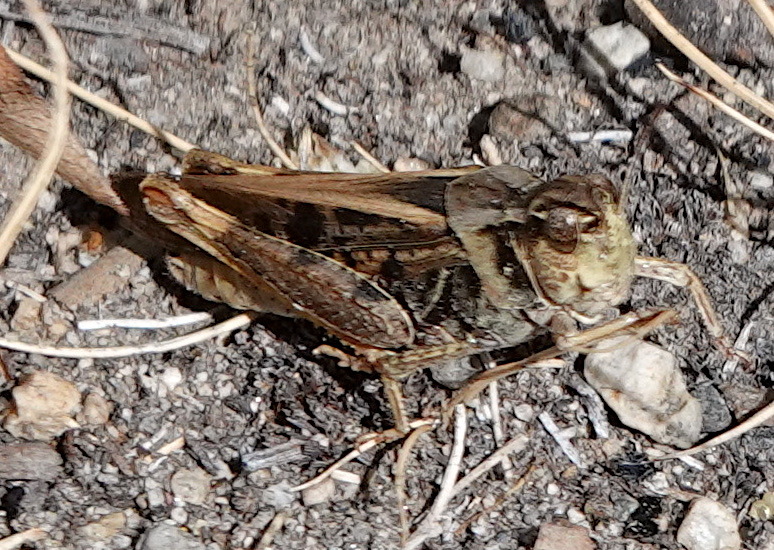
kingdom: Animalia
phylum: Arthropoda
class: Insecta
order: Orthoptera
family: Acrididae
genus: Camnula
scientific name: Camnula pellucida
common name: Clear-winged grasshopper
